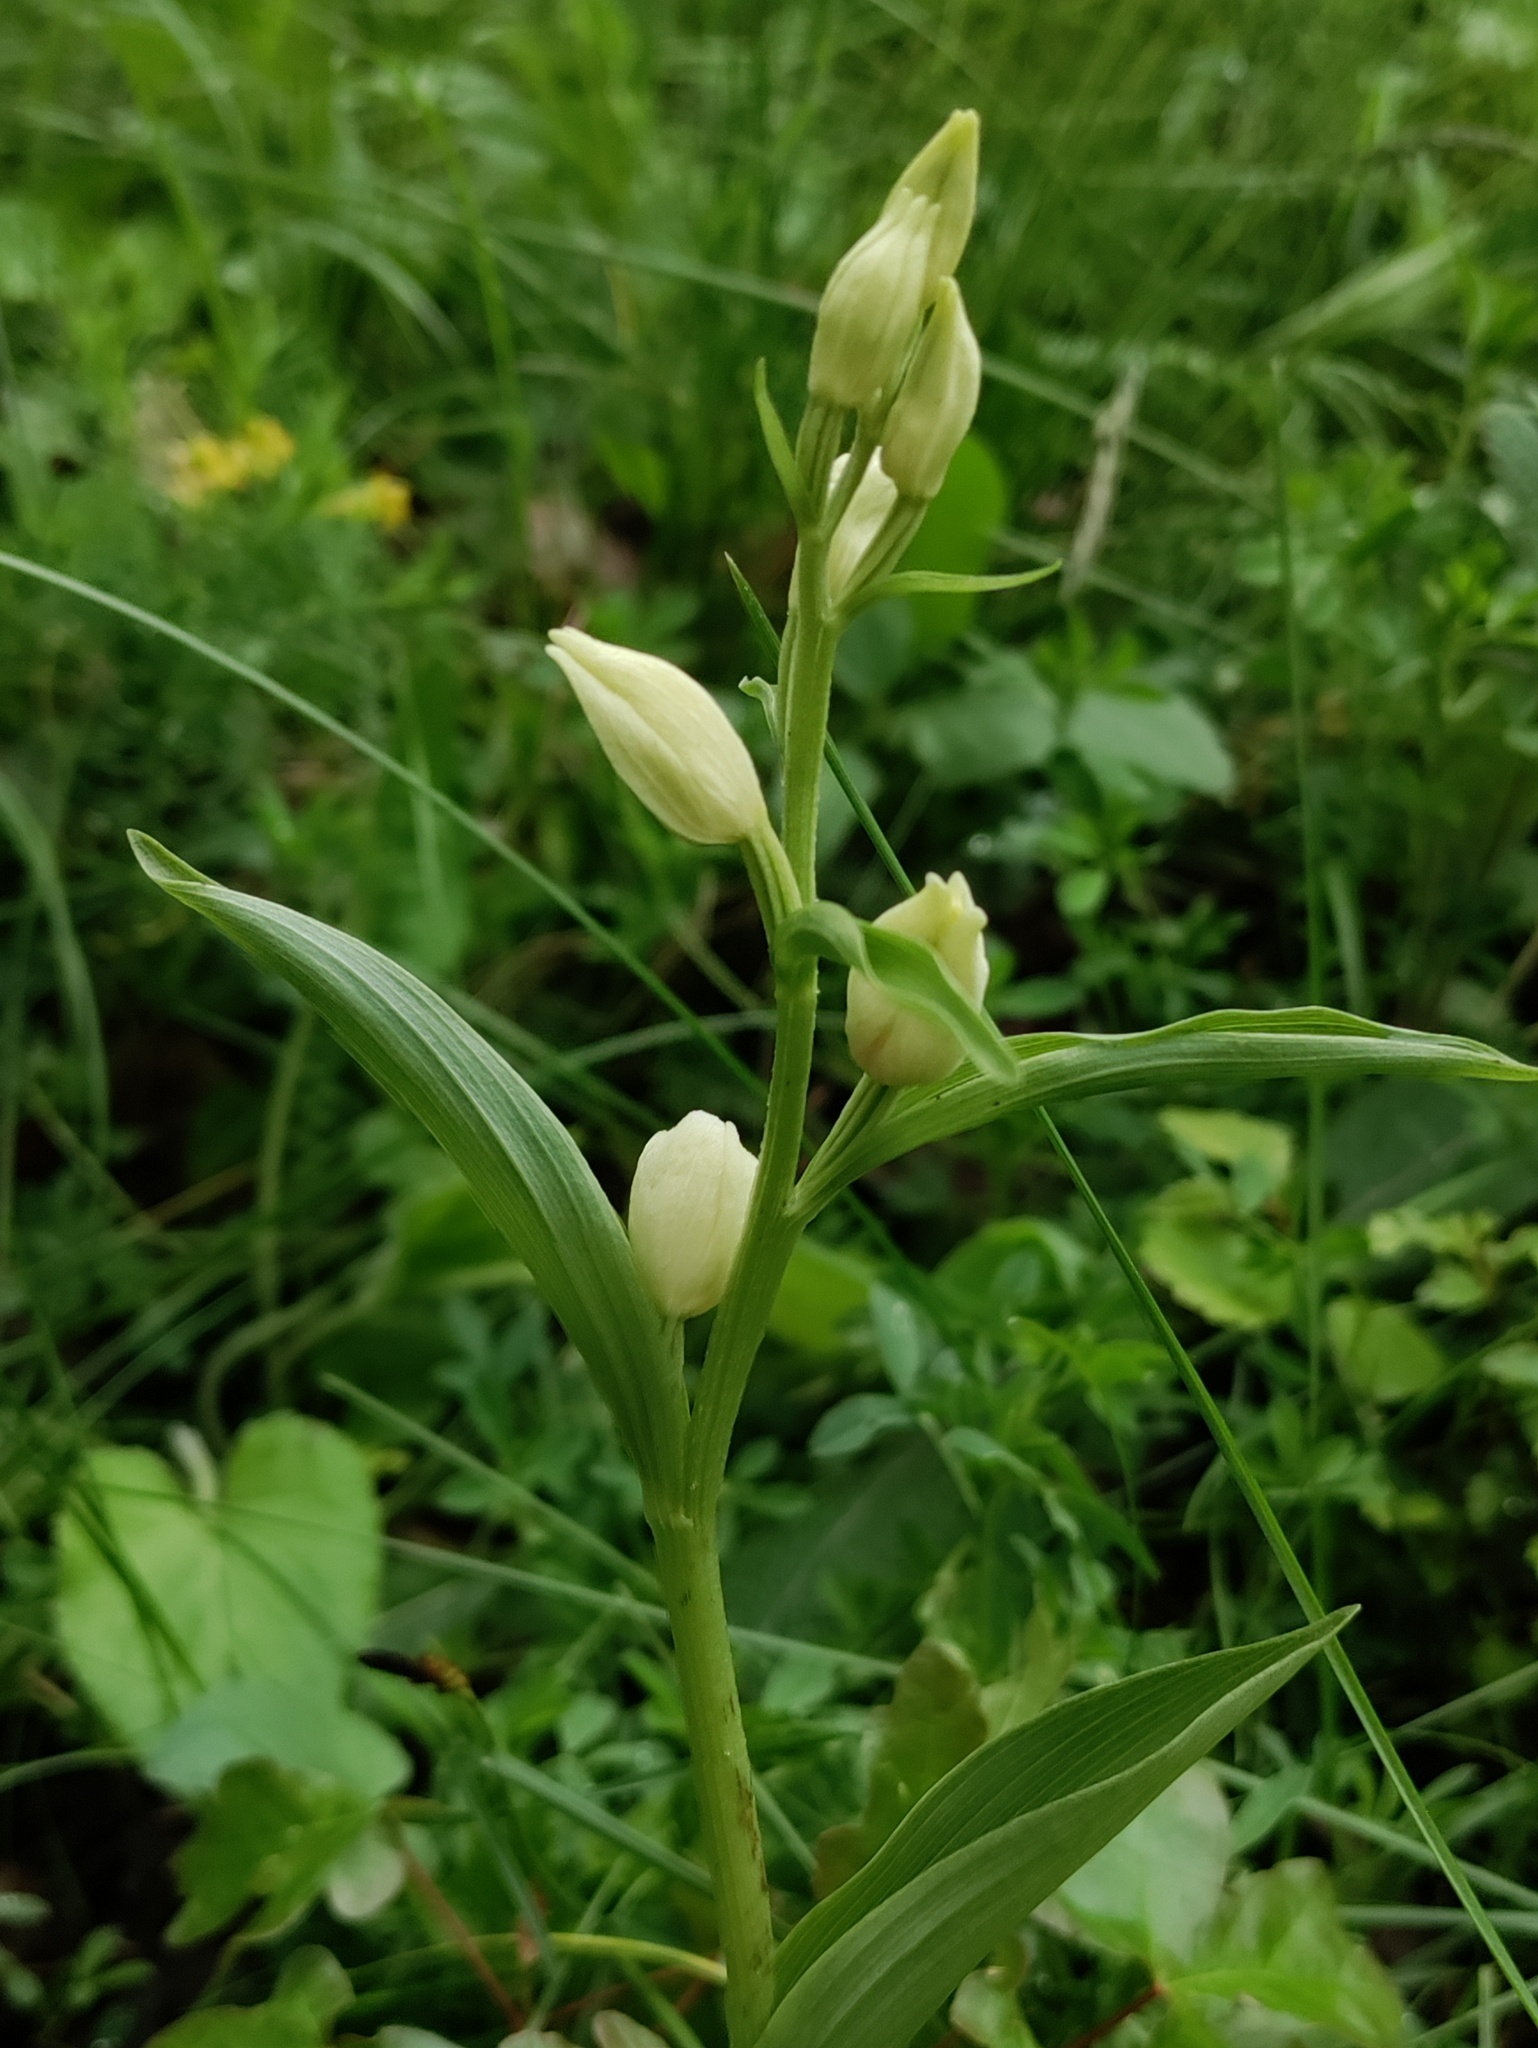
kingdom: Plantae
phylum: Tracheophyta
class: Liliopsida
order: Asparagales
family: Orchidaceae
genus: Cephalanthera
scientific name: Cephalanthera damasonium
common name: White helleborine
